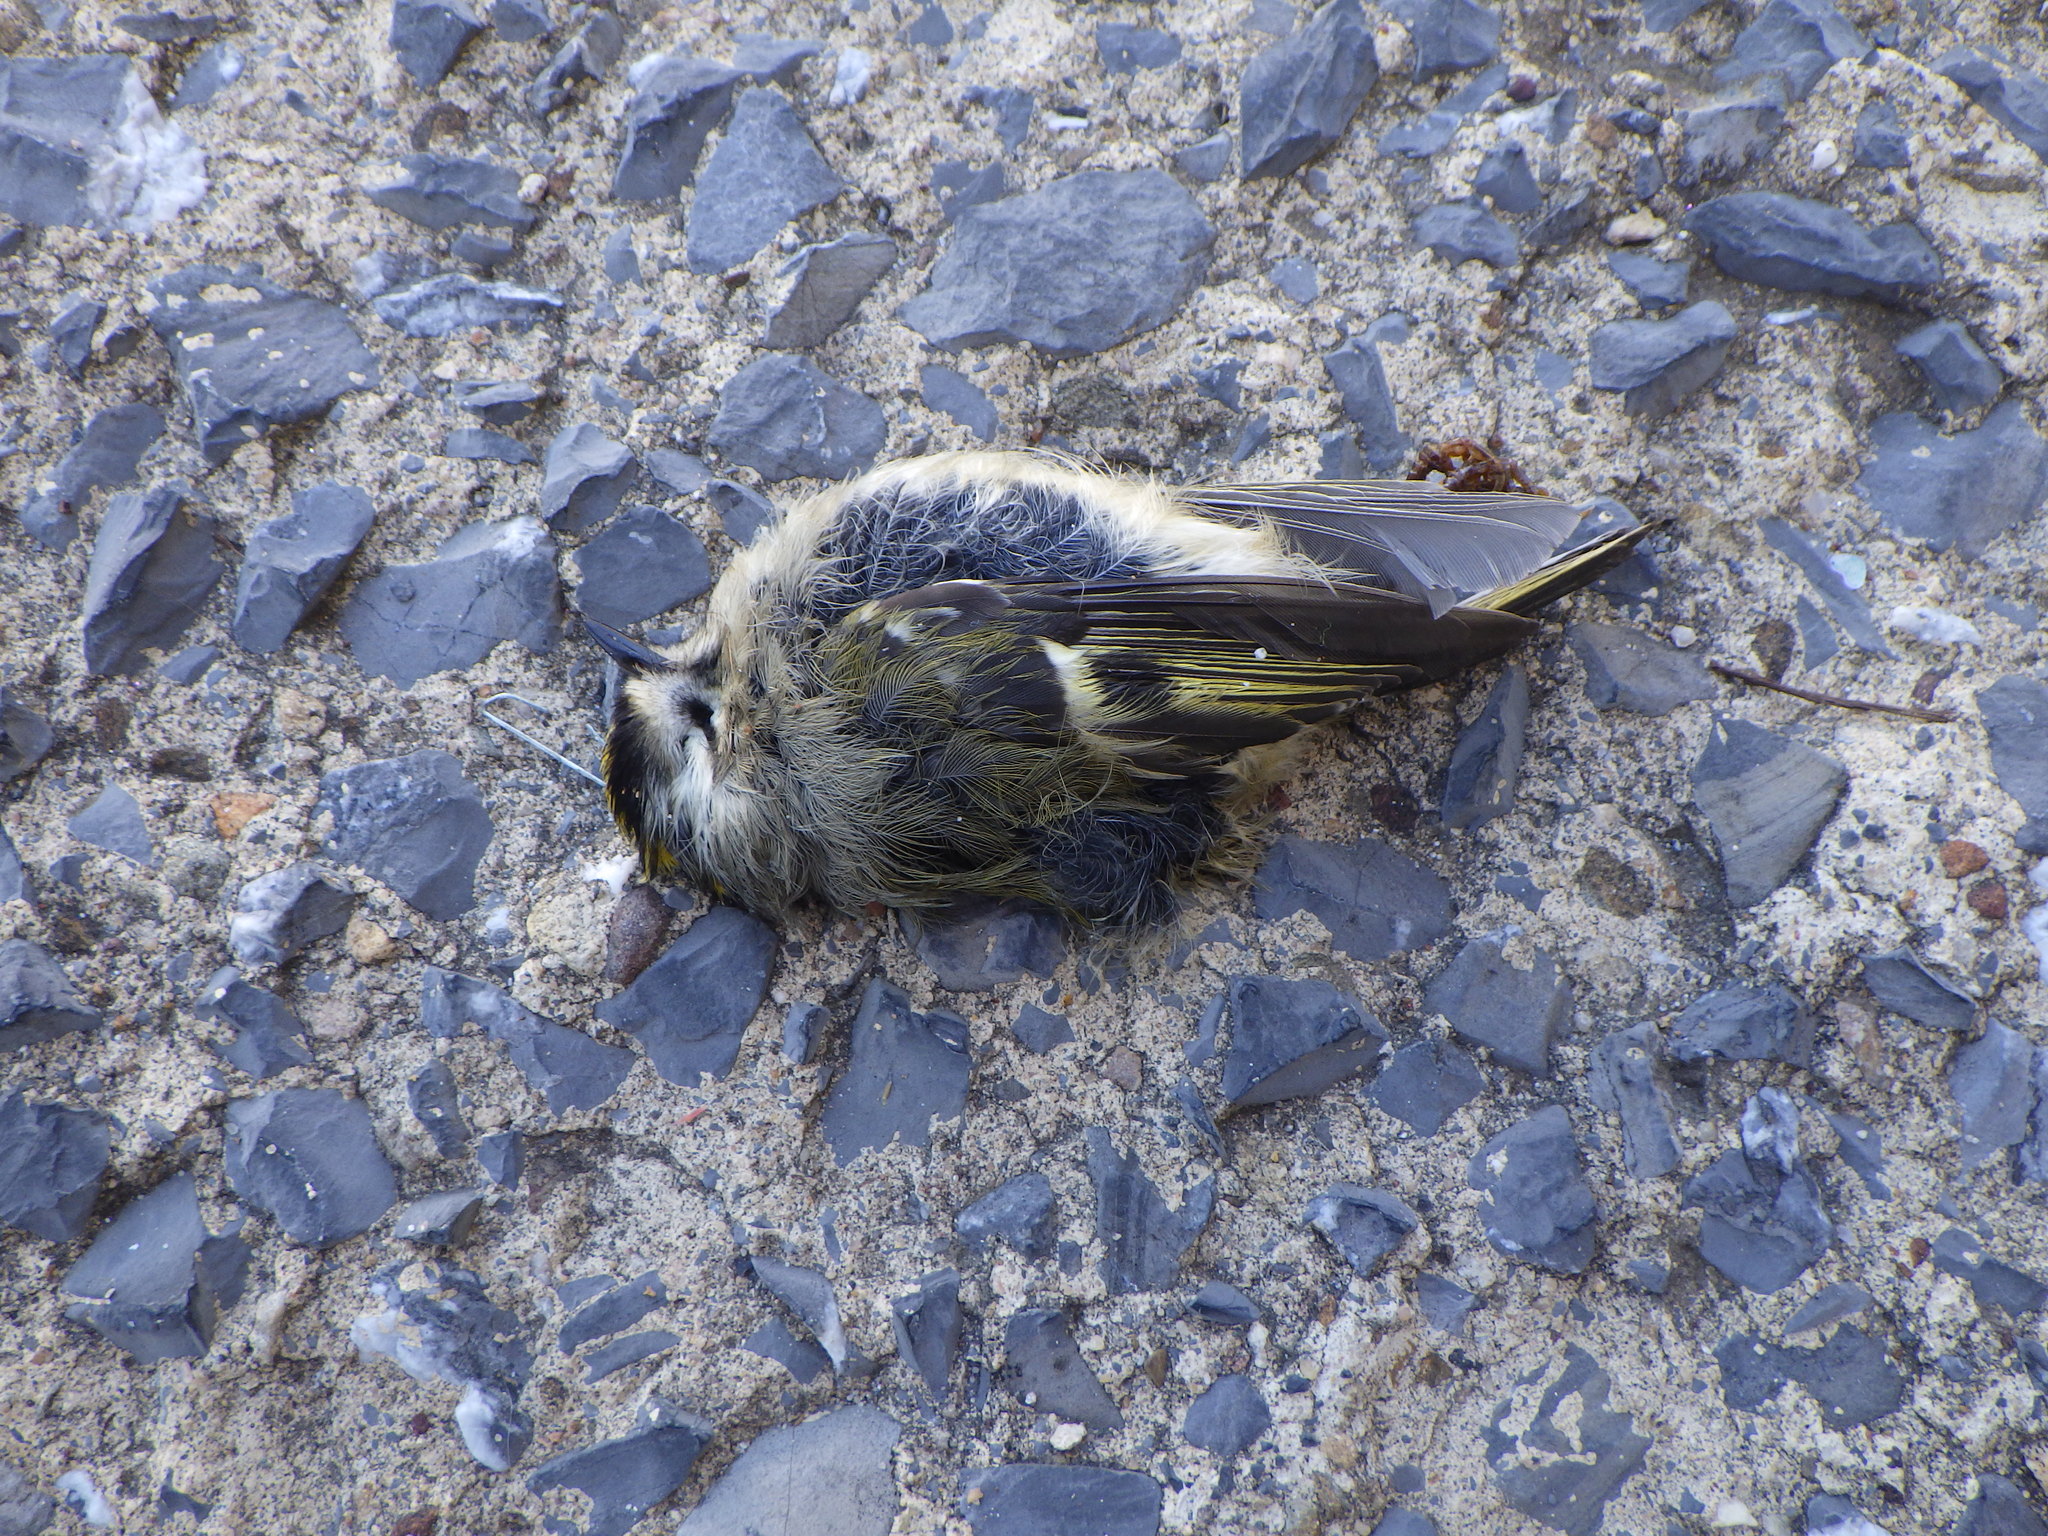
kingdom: Animalia
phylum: Chordata
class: Aves
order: Passeriformes
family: Regulidae
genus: Regulus
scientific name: Regulus satrapa
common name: Golden-crowned kinglet
